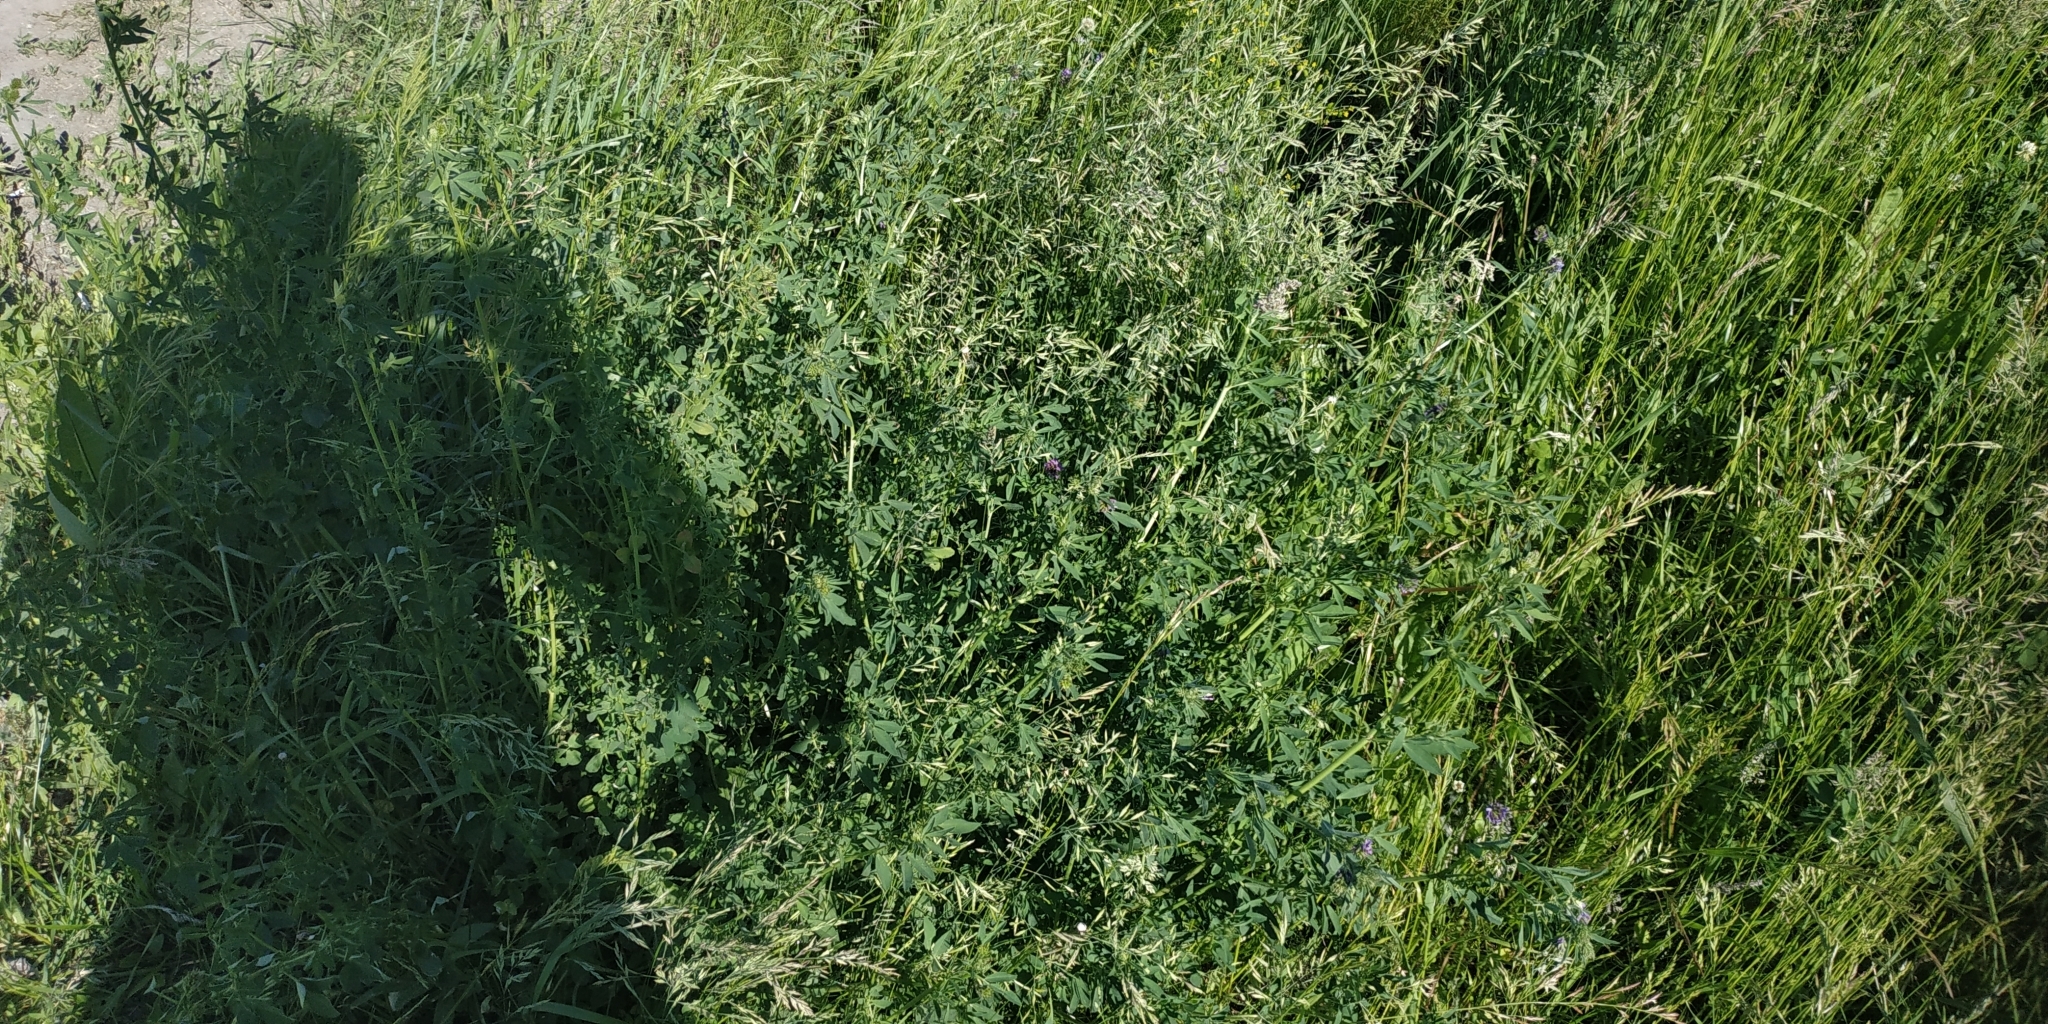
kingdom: Plantae
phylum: Tracheophyta
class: Magnoliopsida
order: Fabales
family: Fabaceae
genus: Medicago
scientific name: Medicago sativa
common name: Alfalfa
